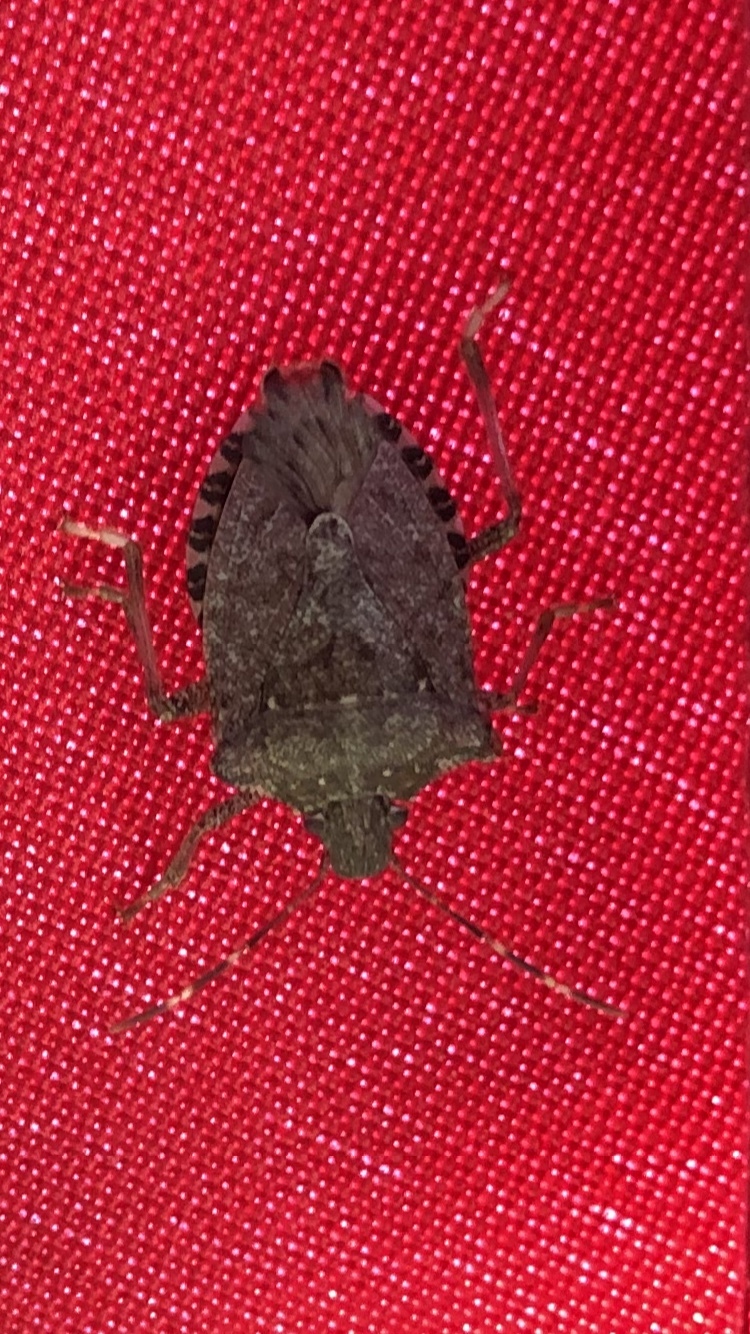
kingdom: Animalia
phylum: Arthropoda
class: Insecta
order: Hemiptera
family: Pentatomidae
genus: Halyomorpha
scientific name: Halyomorpha halys
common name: Brown marmorated stink bug
